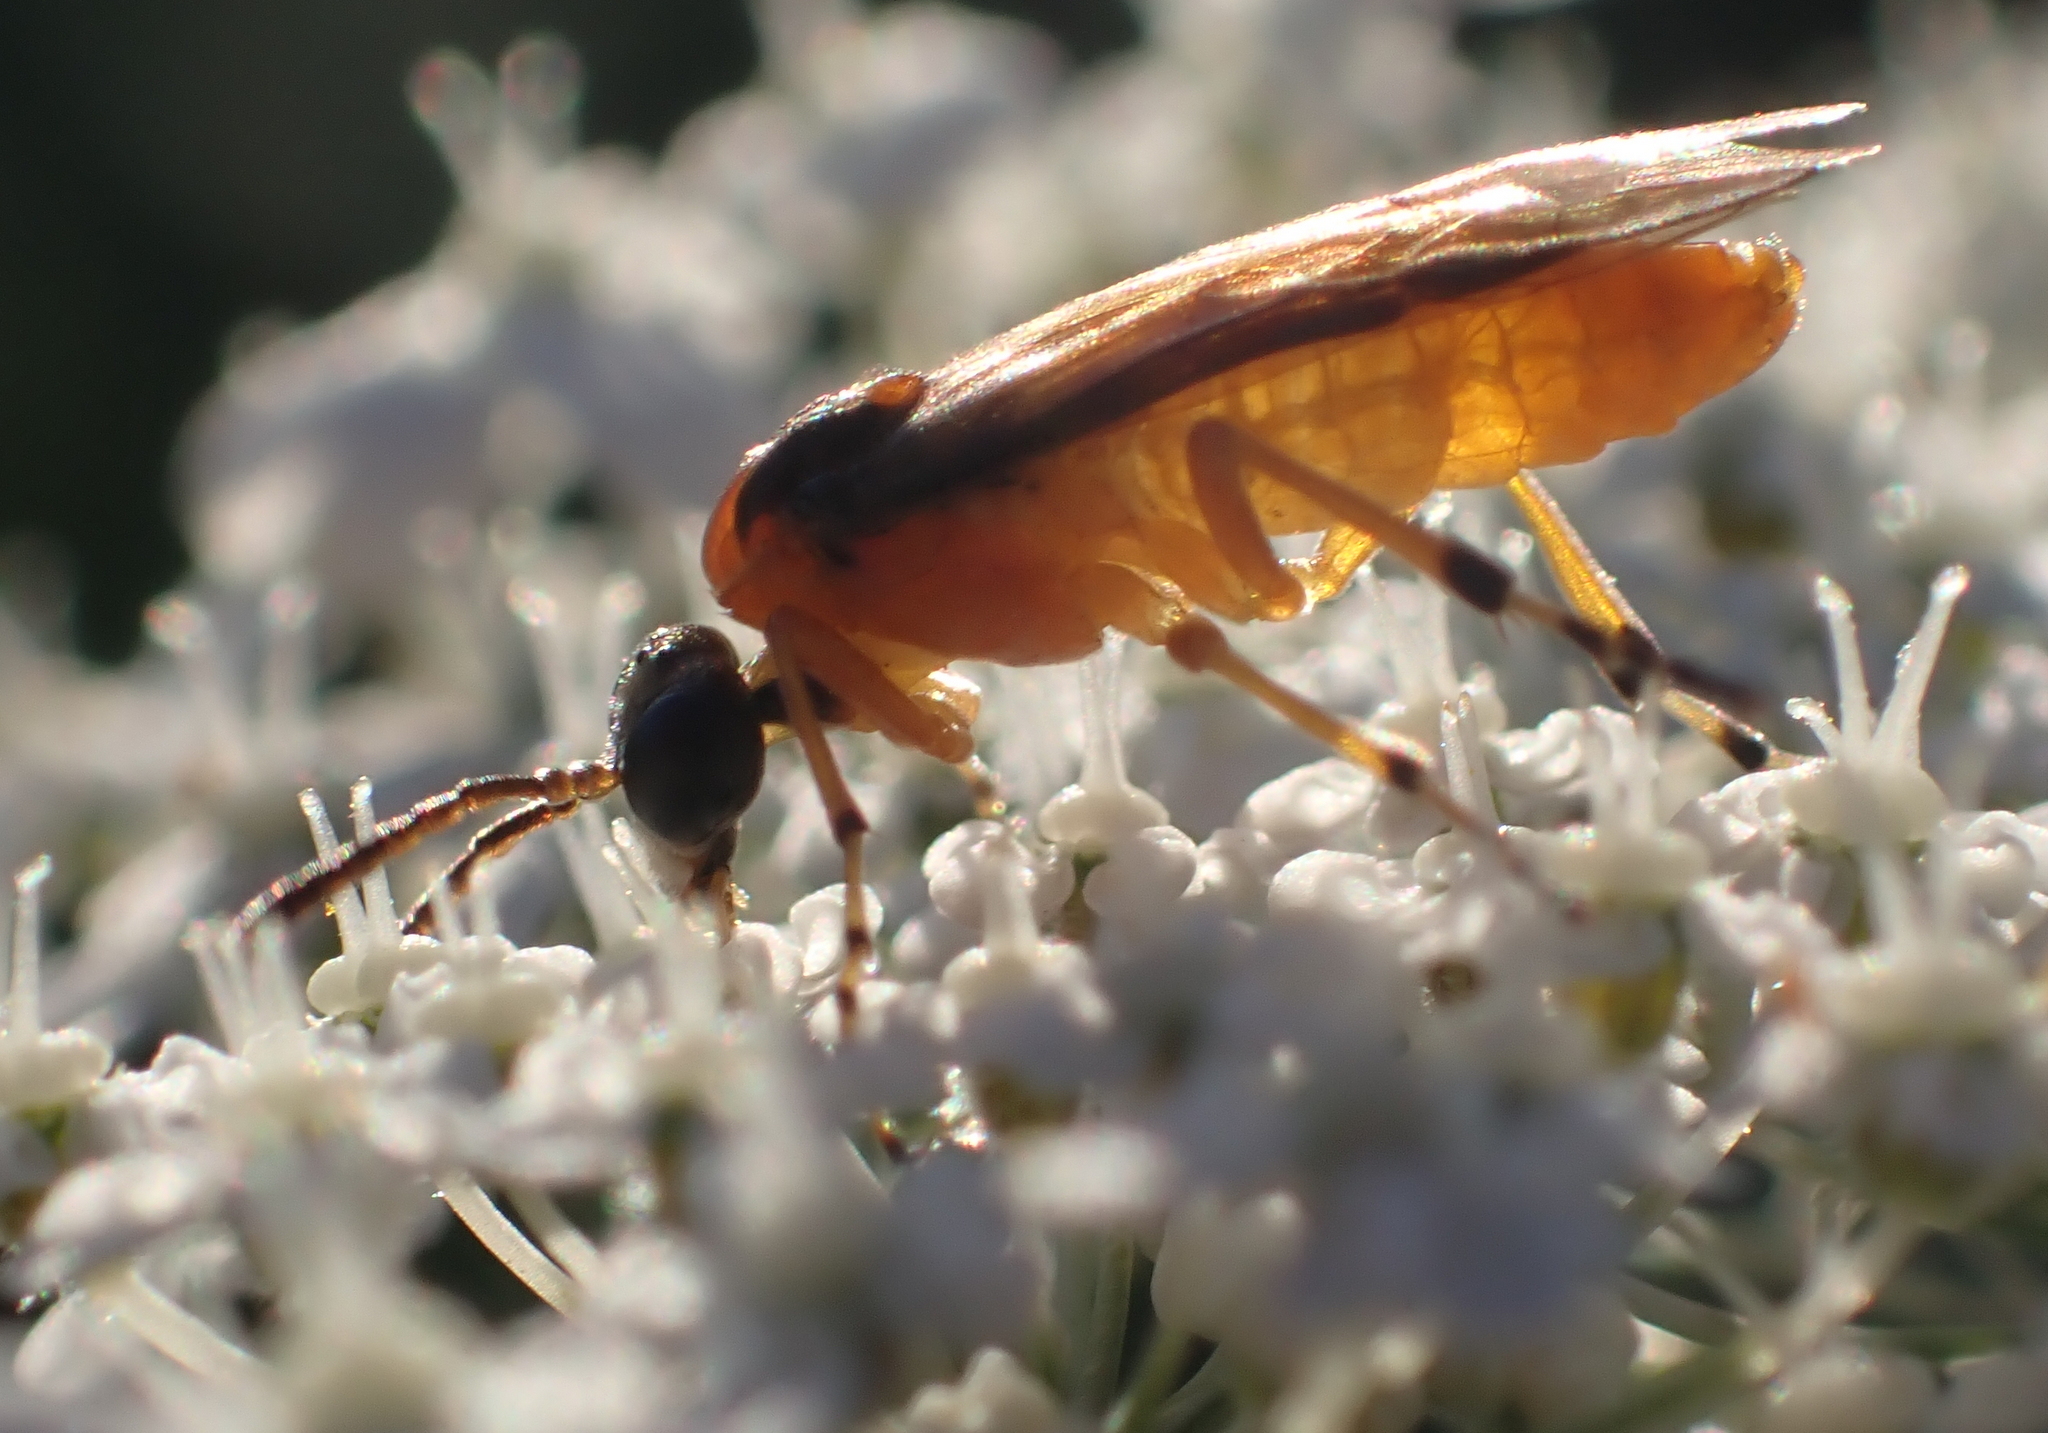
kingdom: Animalia
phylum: Arthropoda
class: Insecta
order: Hymenoptera
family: Tenthredinidae
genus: Athalia
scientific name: Athalia rosae
